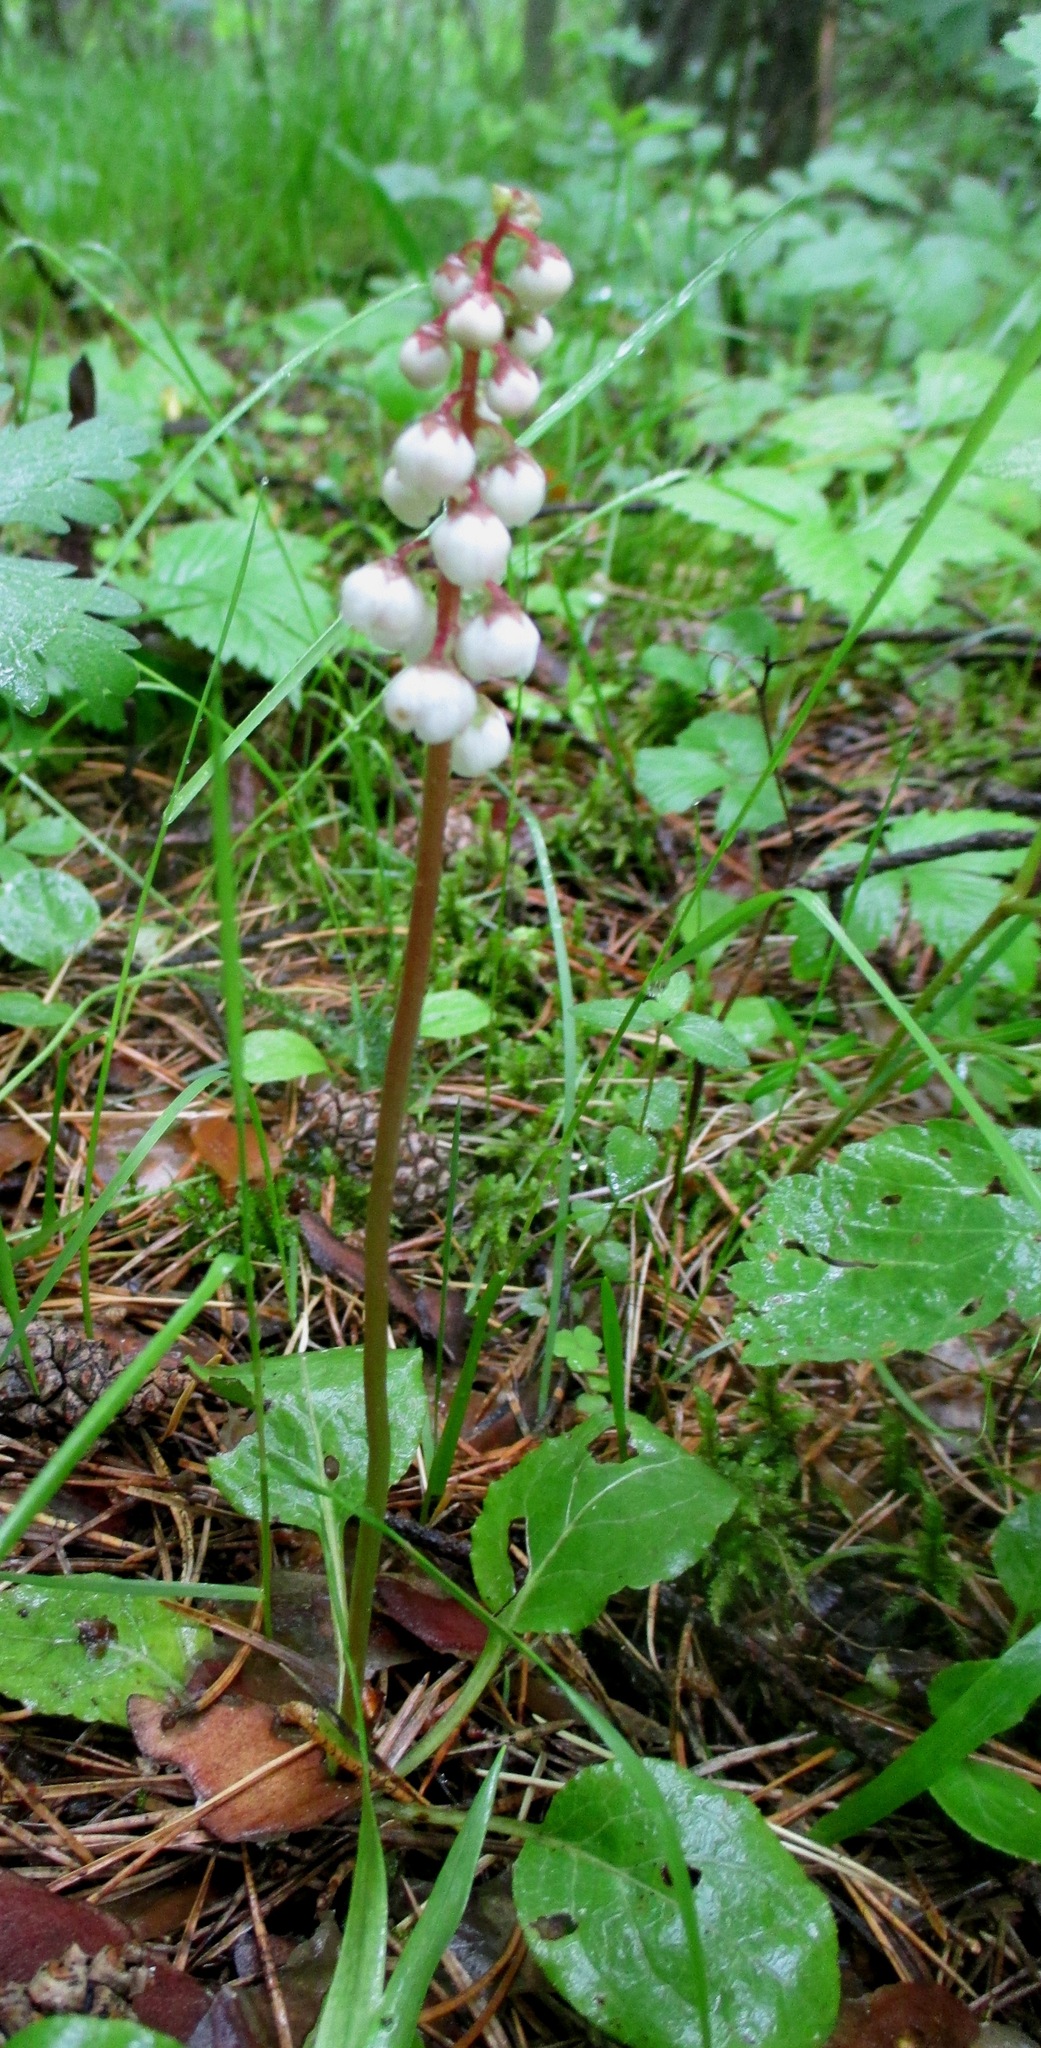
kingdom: Plantae
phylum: Tracheophyta
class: Magnoliopsida
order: Ericales
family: Ericaceae
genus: Pyrola
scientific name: Pyrola minor
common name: Common wintergreen
